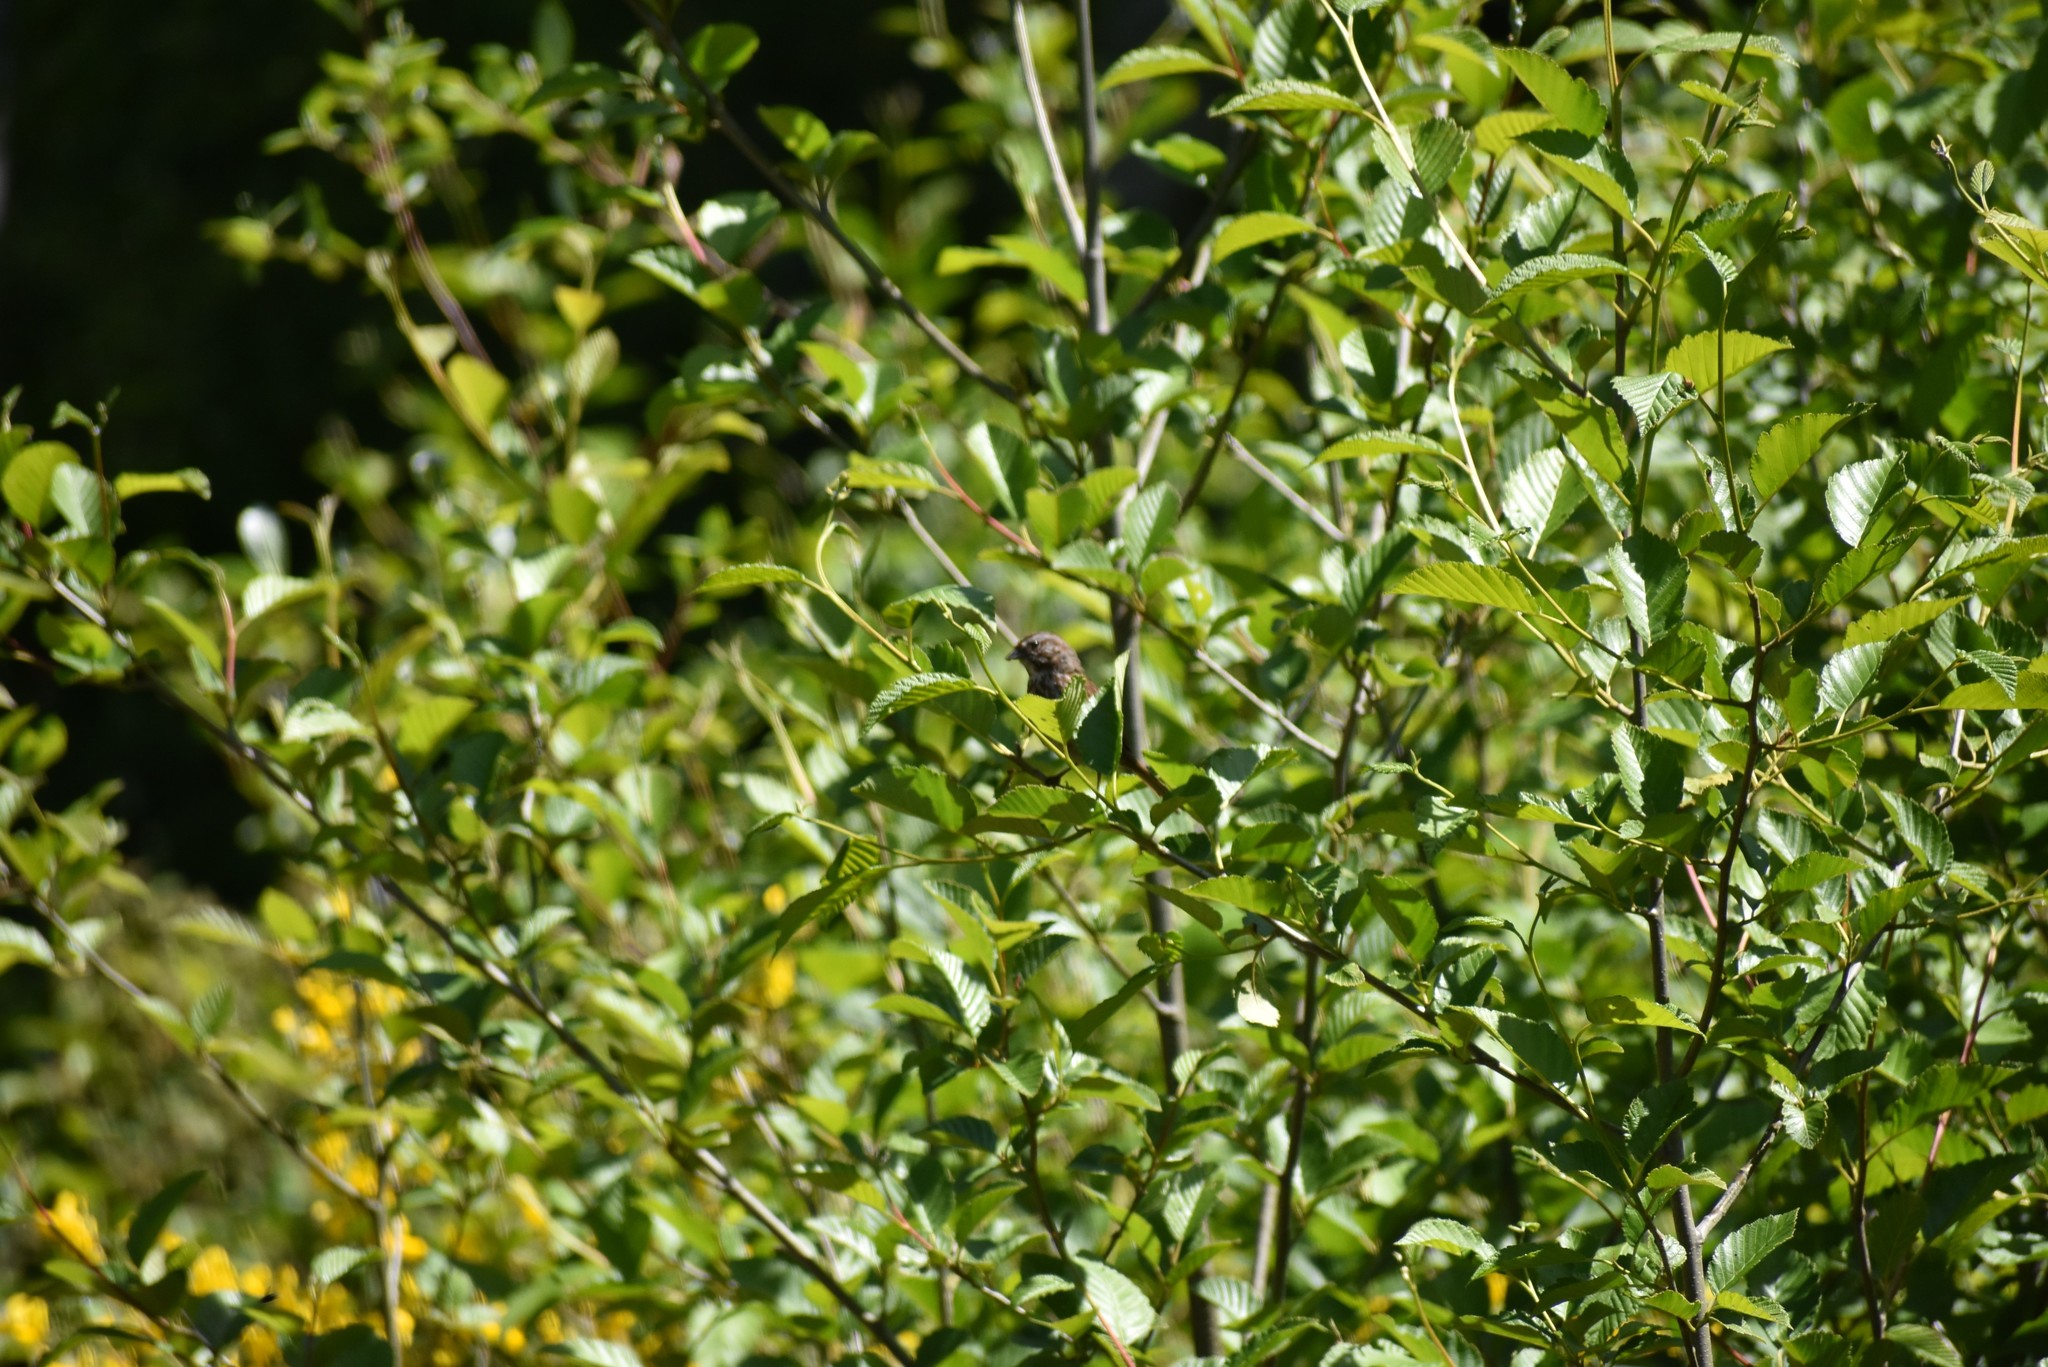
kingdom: Animalia
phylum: Chordata
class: Aves
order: Passeriformes
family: Passerellidae
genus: Melospiza
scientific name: Melospiza melodia
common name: Song sparrow
